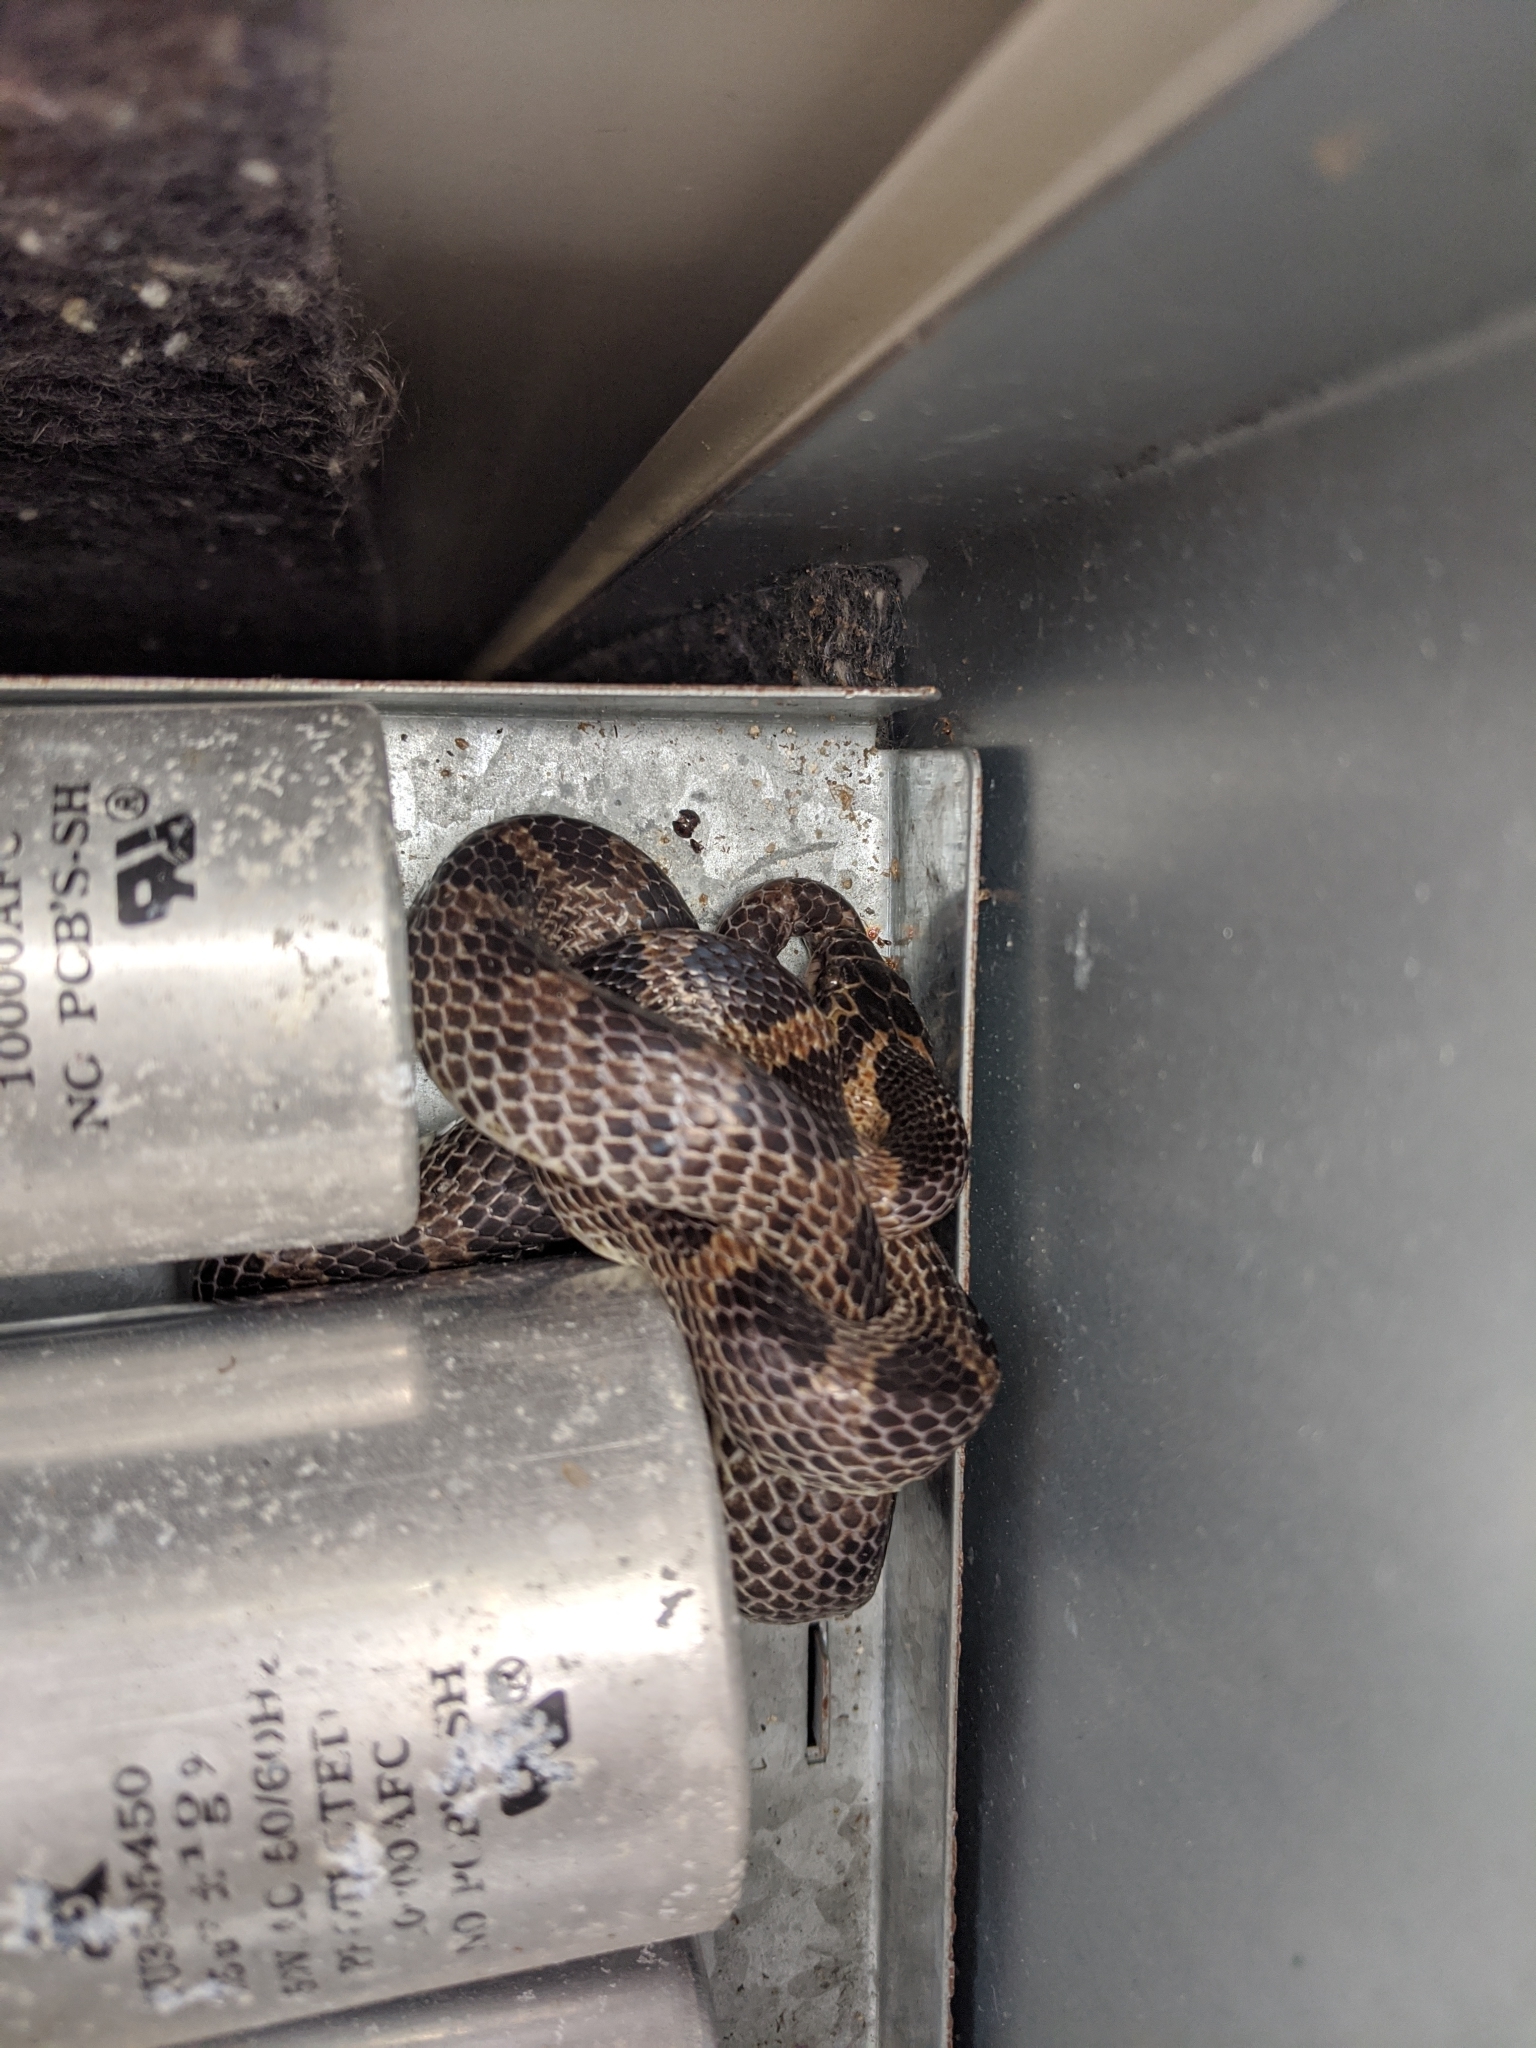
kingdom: Animalia
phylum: Chordata
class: Squamata
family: Colubridae
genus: Lycodon
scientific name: Lycodon rufozonatus
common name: Red-banded snake
